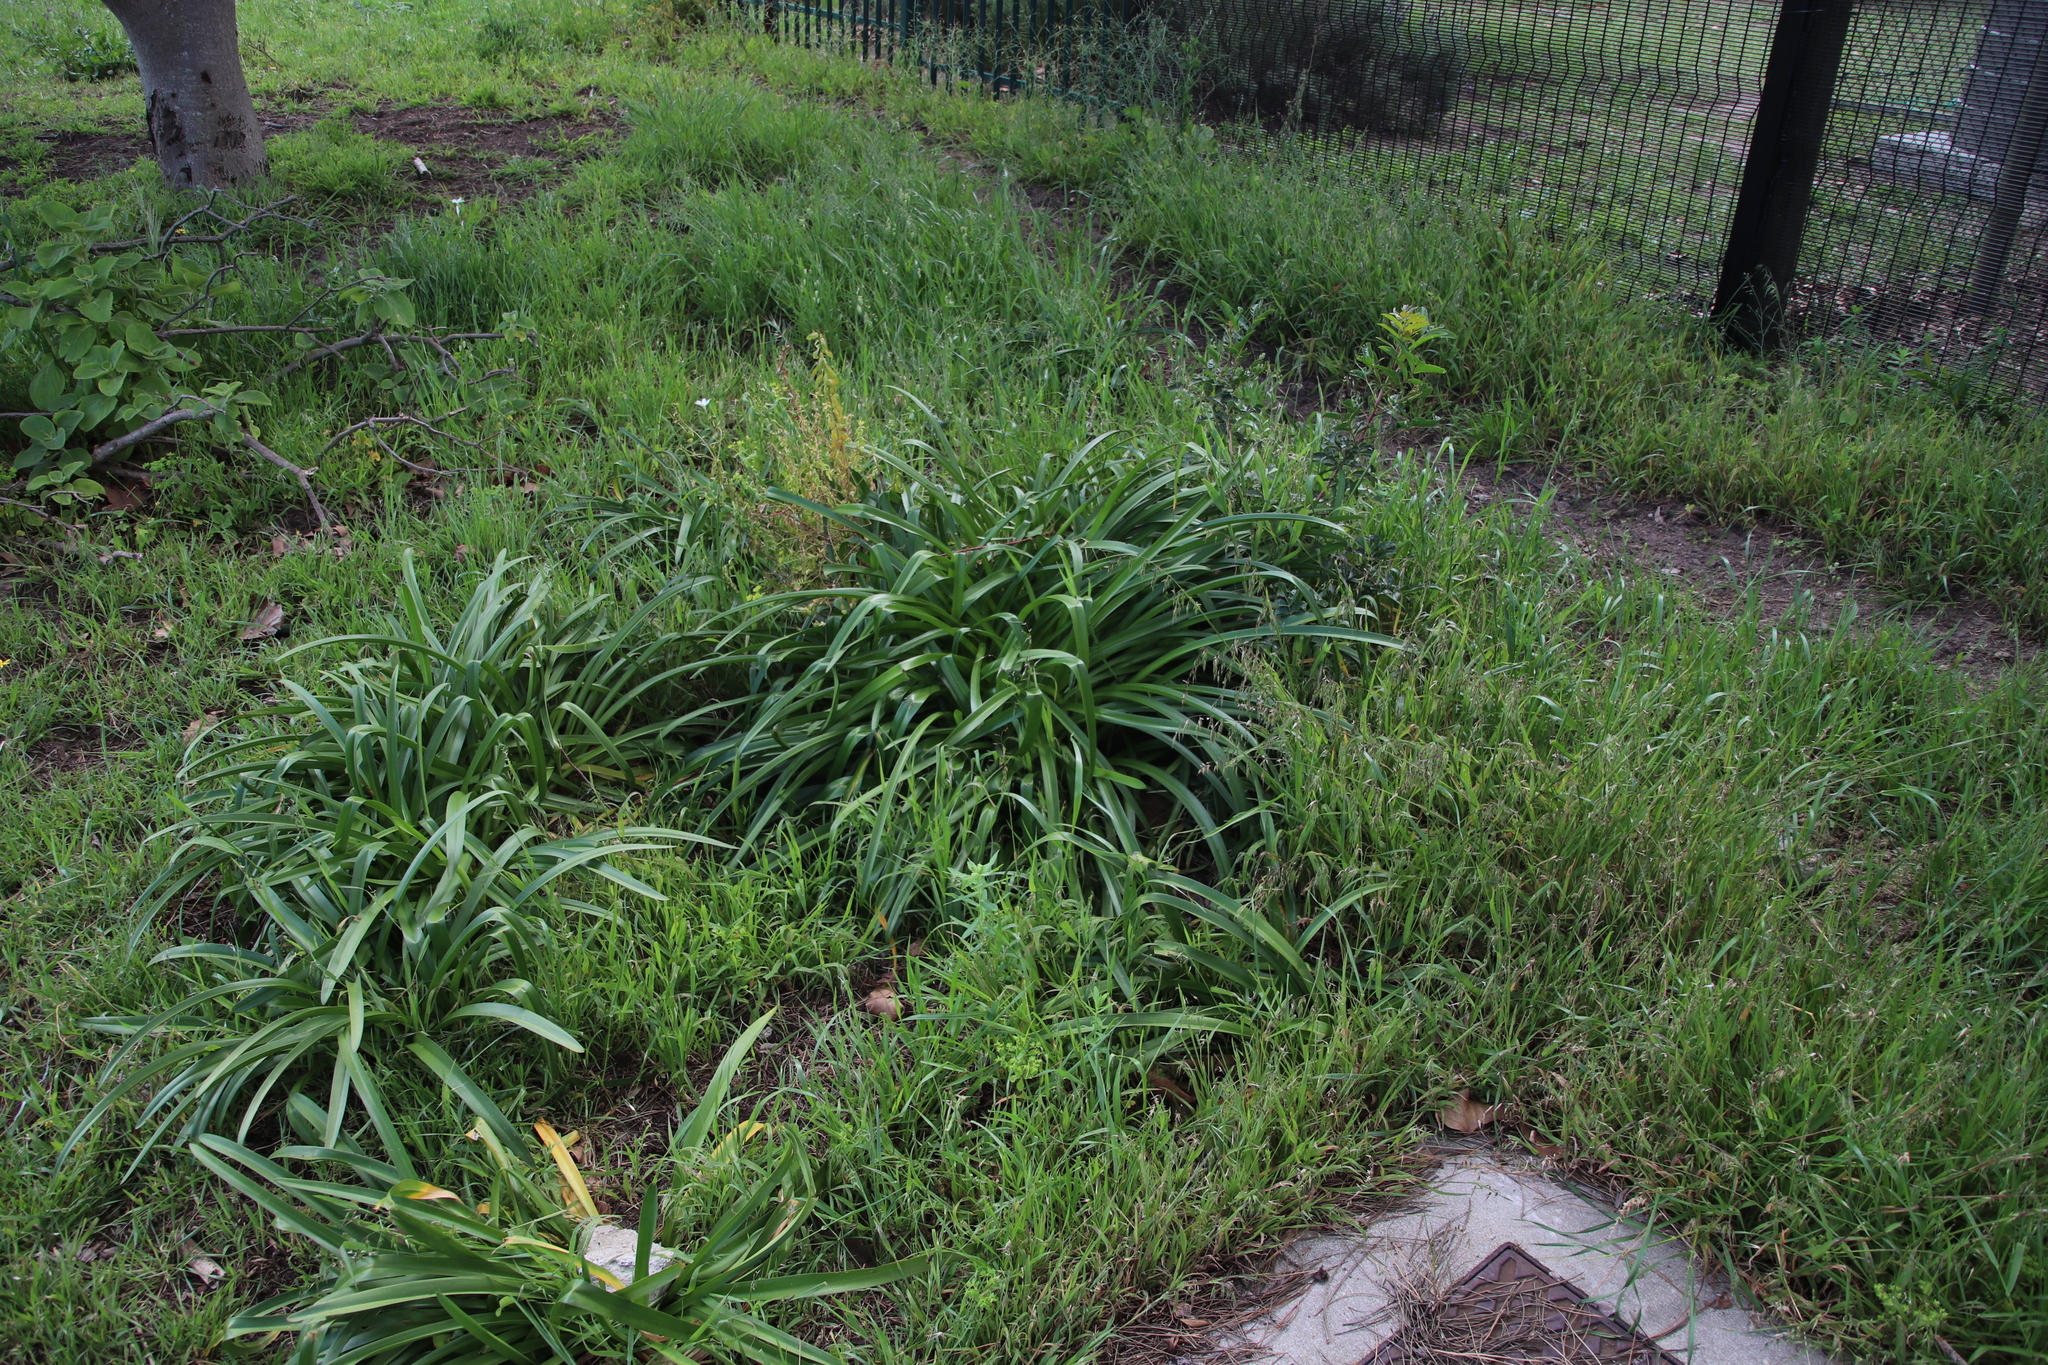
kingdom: Plantae
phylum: Tracheophyta
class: Liliopsida
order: Asparagales
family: Amaryllidaceae
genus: Agapanthus
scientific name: Agapanthus praecox
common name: African-lily
